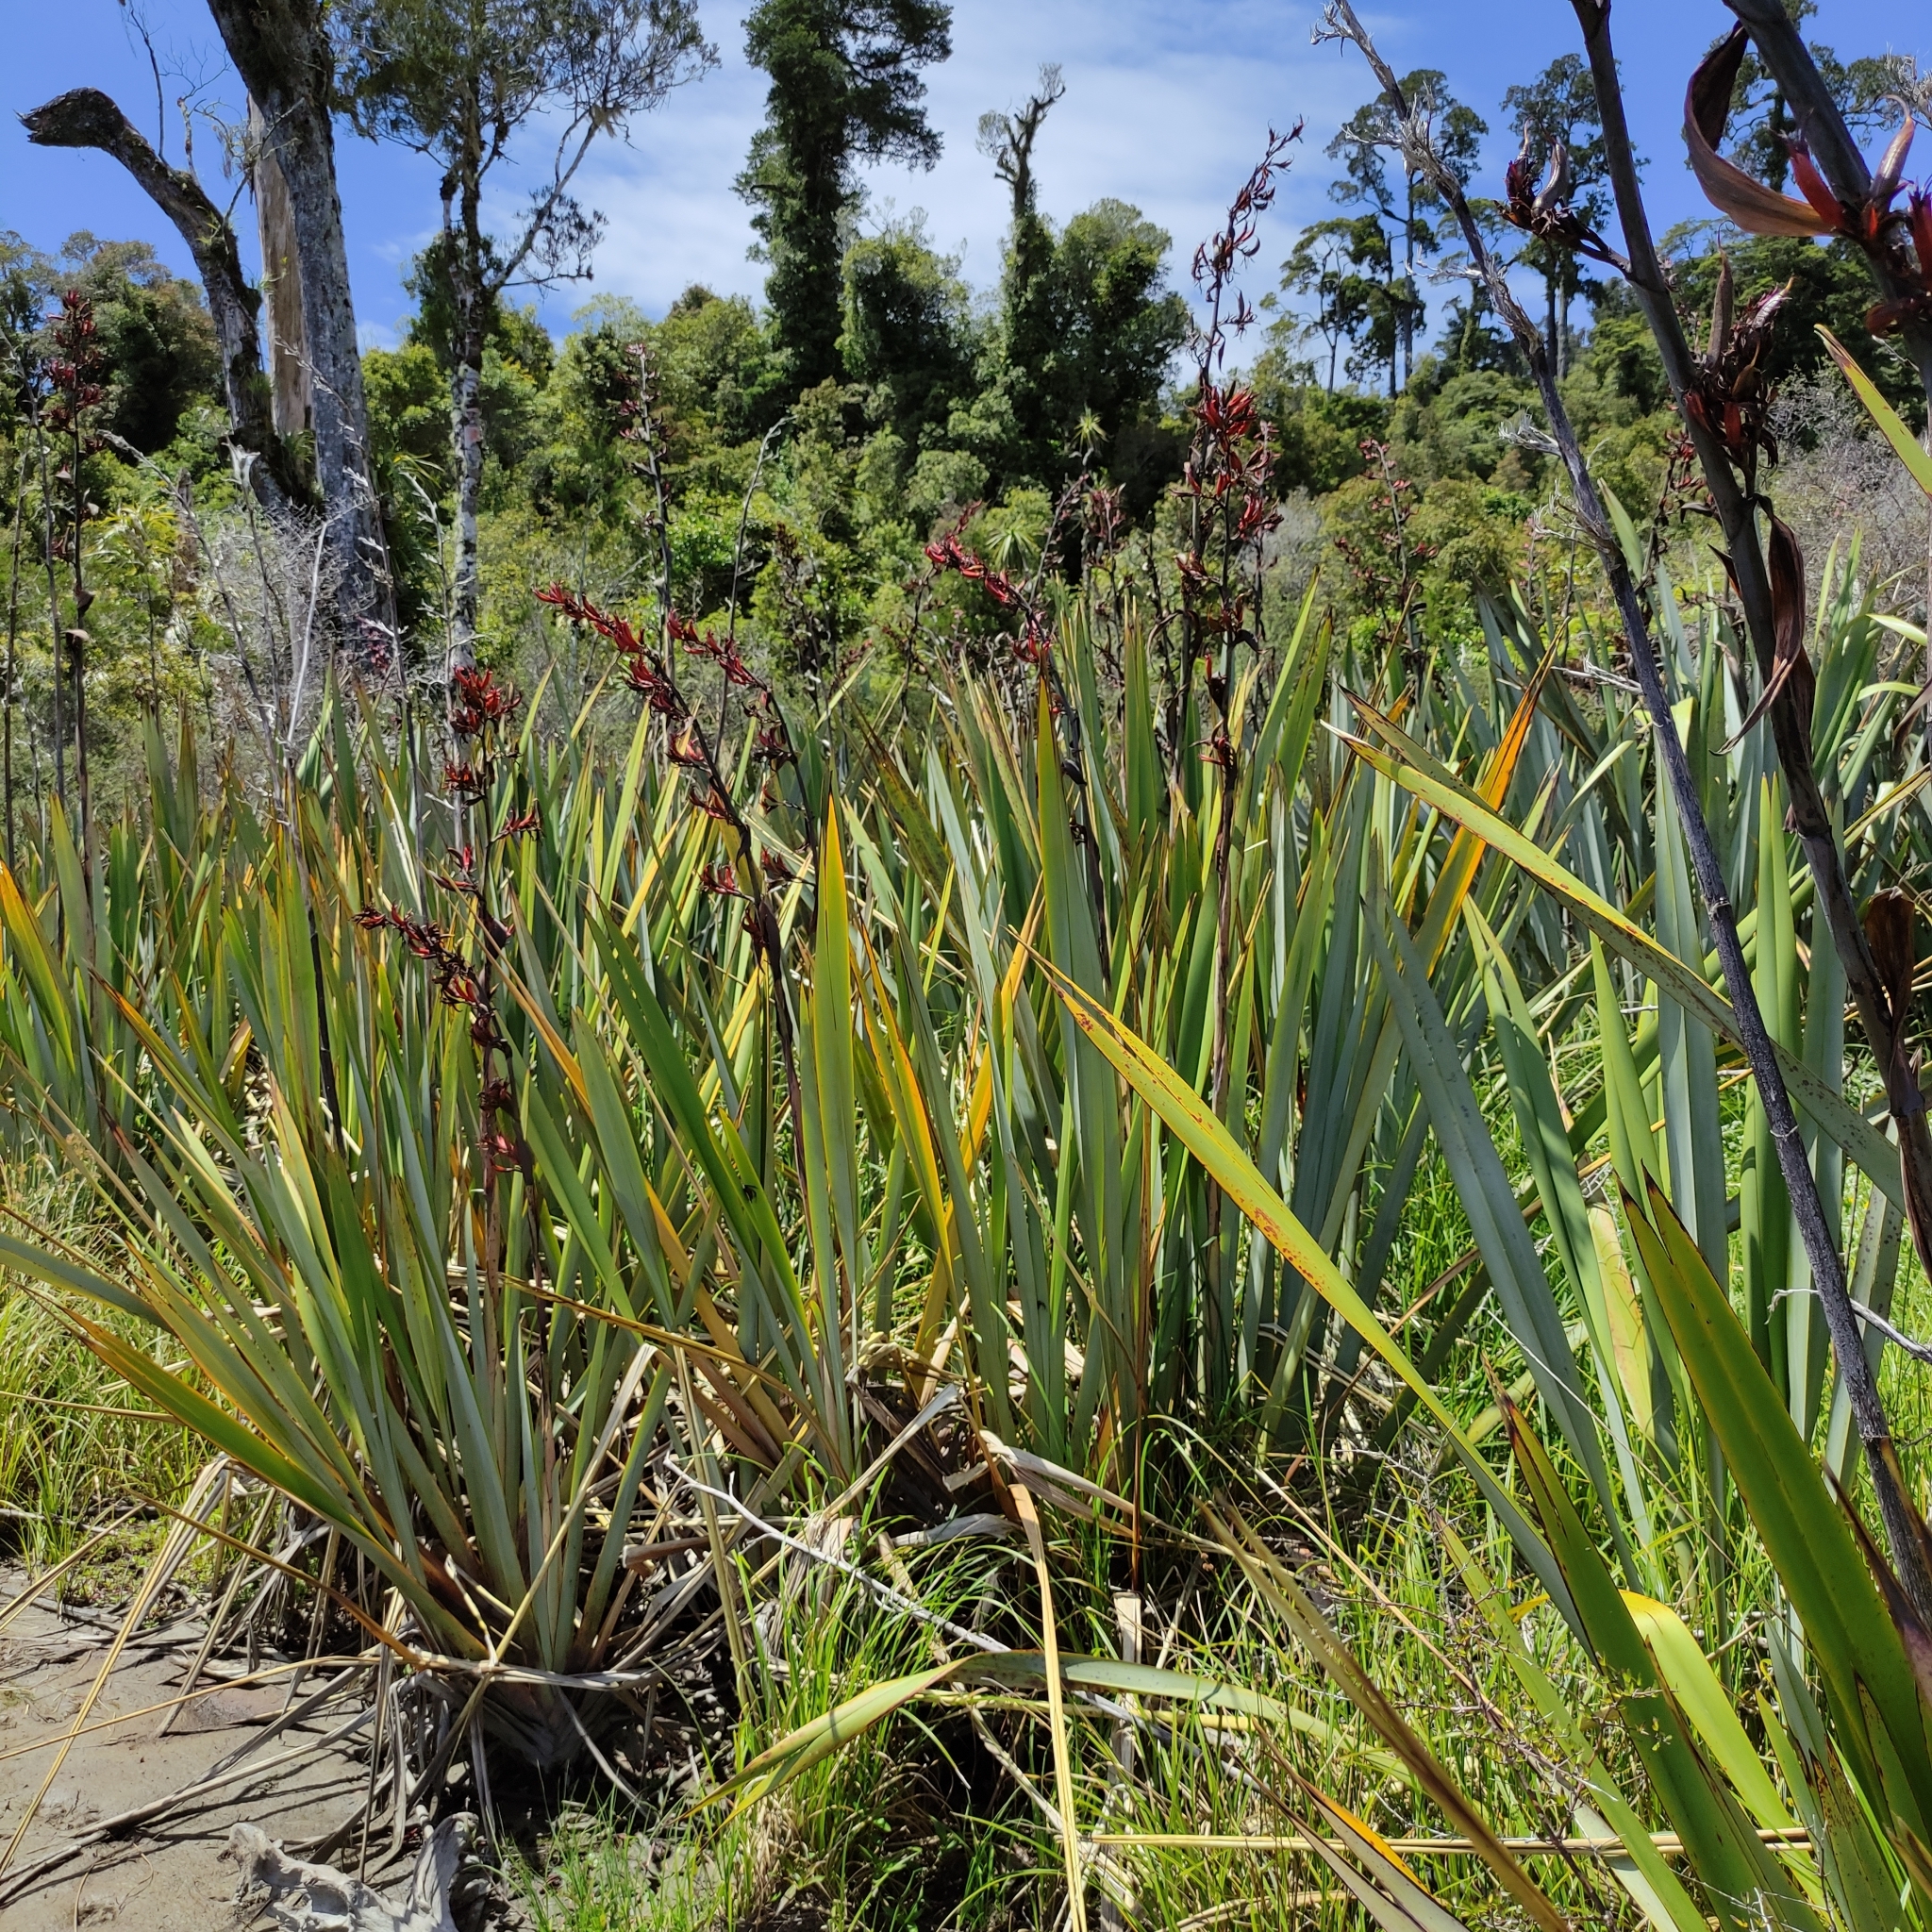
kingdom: Plantae
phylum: Tracheophyta
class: Liliopsida
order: Asparagales
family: Asphodelaceae
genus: Phormium
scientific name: Phormium tenax
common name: New zealand flax
